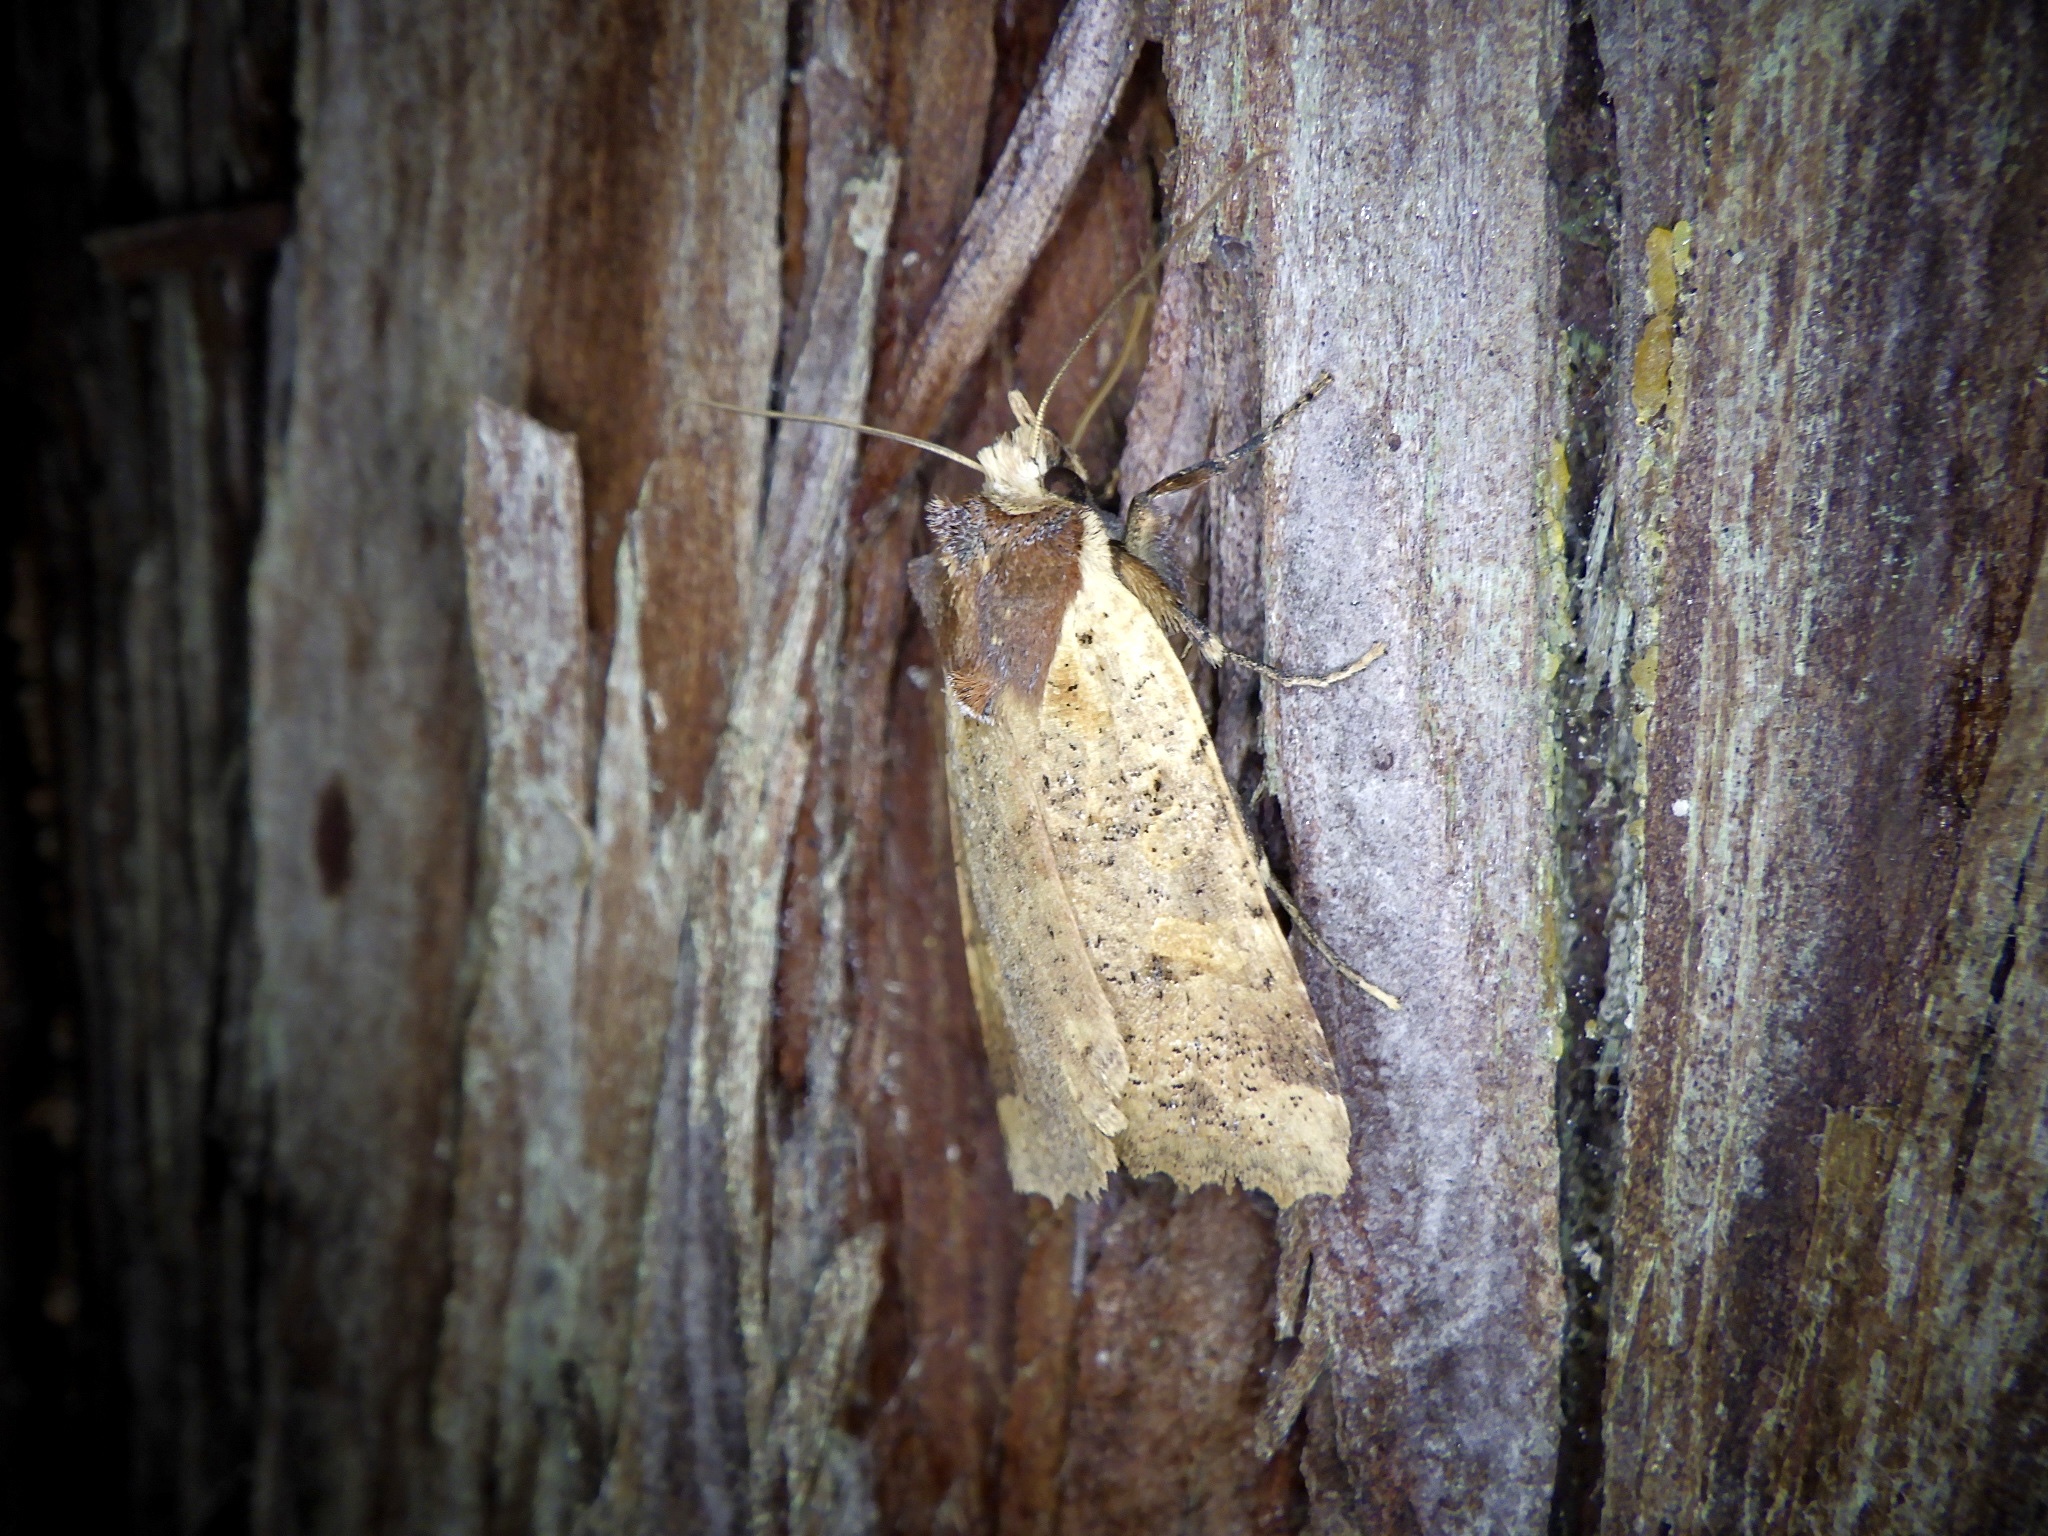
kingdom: Animalia
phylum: Arthropoda
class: Insecta
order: Lepidoptera
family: Noctuidae
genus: Rhynchaglaea
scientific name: Rhynchaglaea scitula
